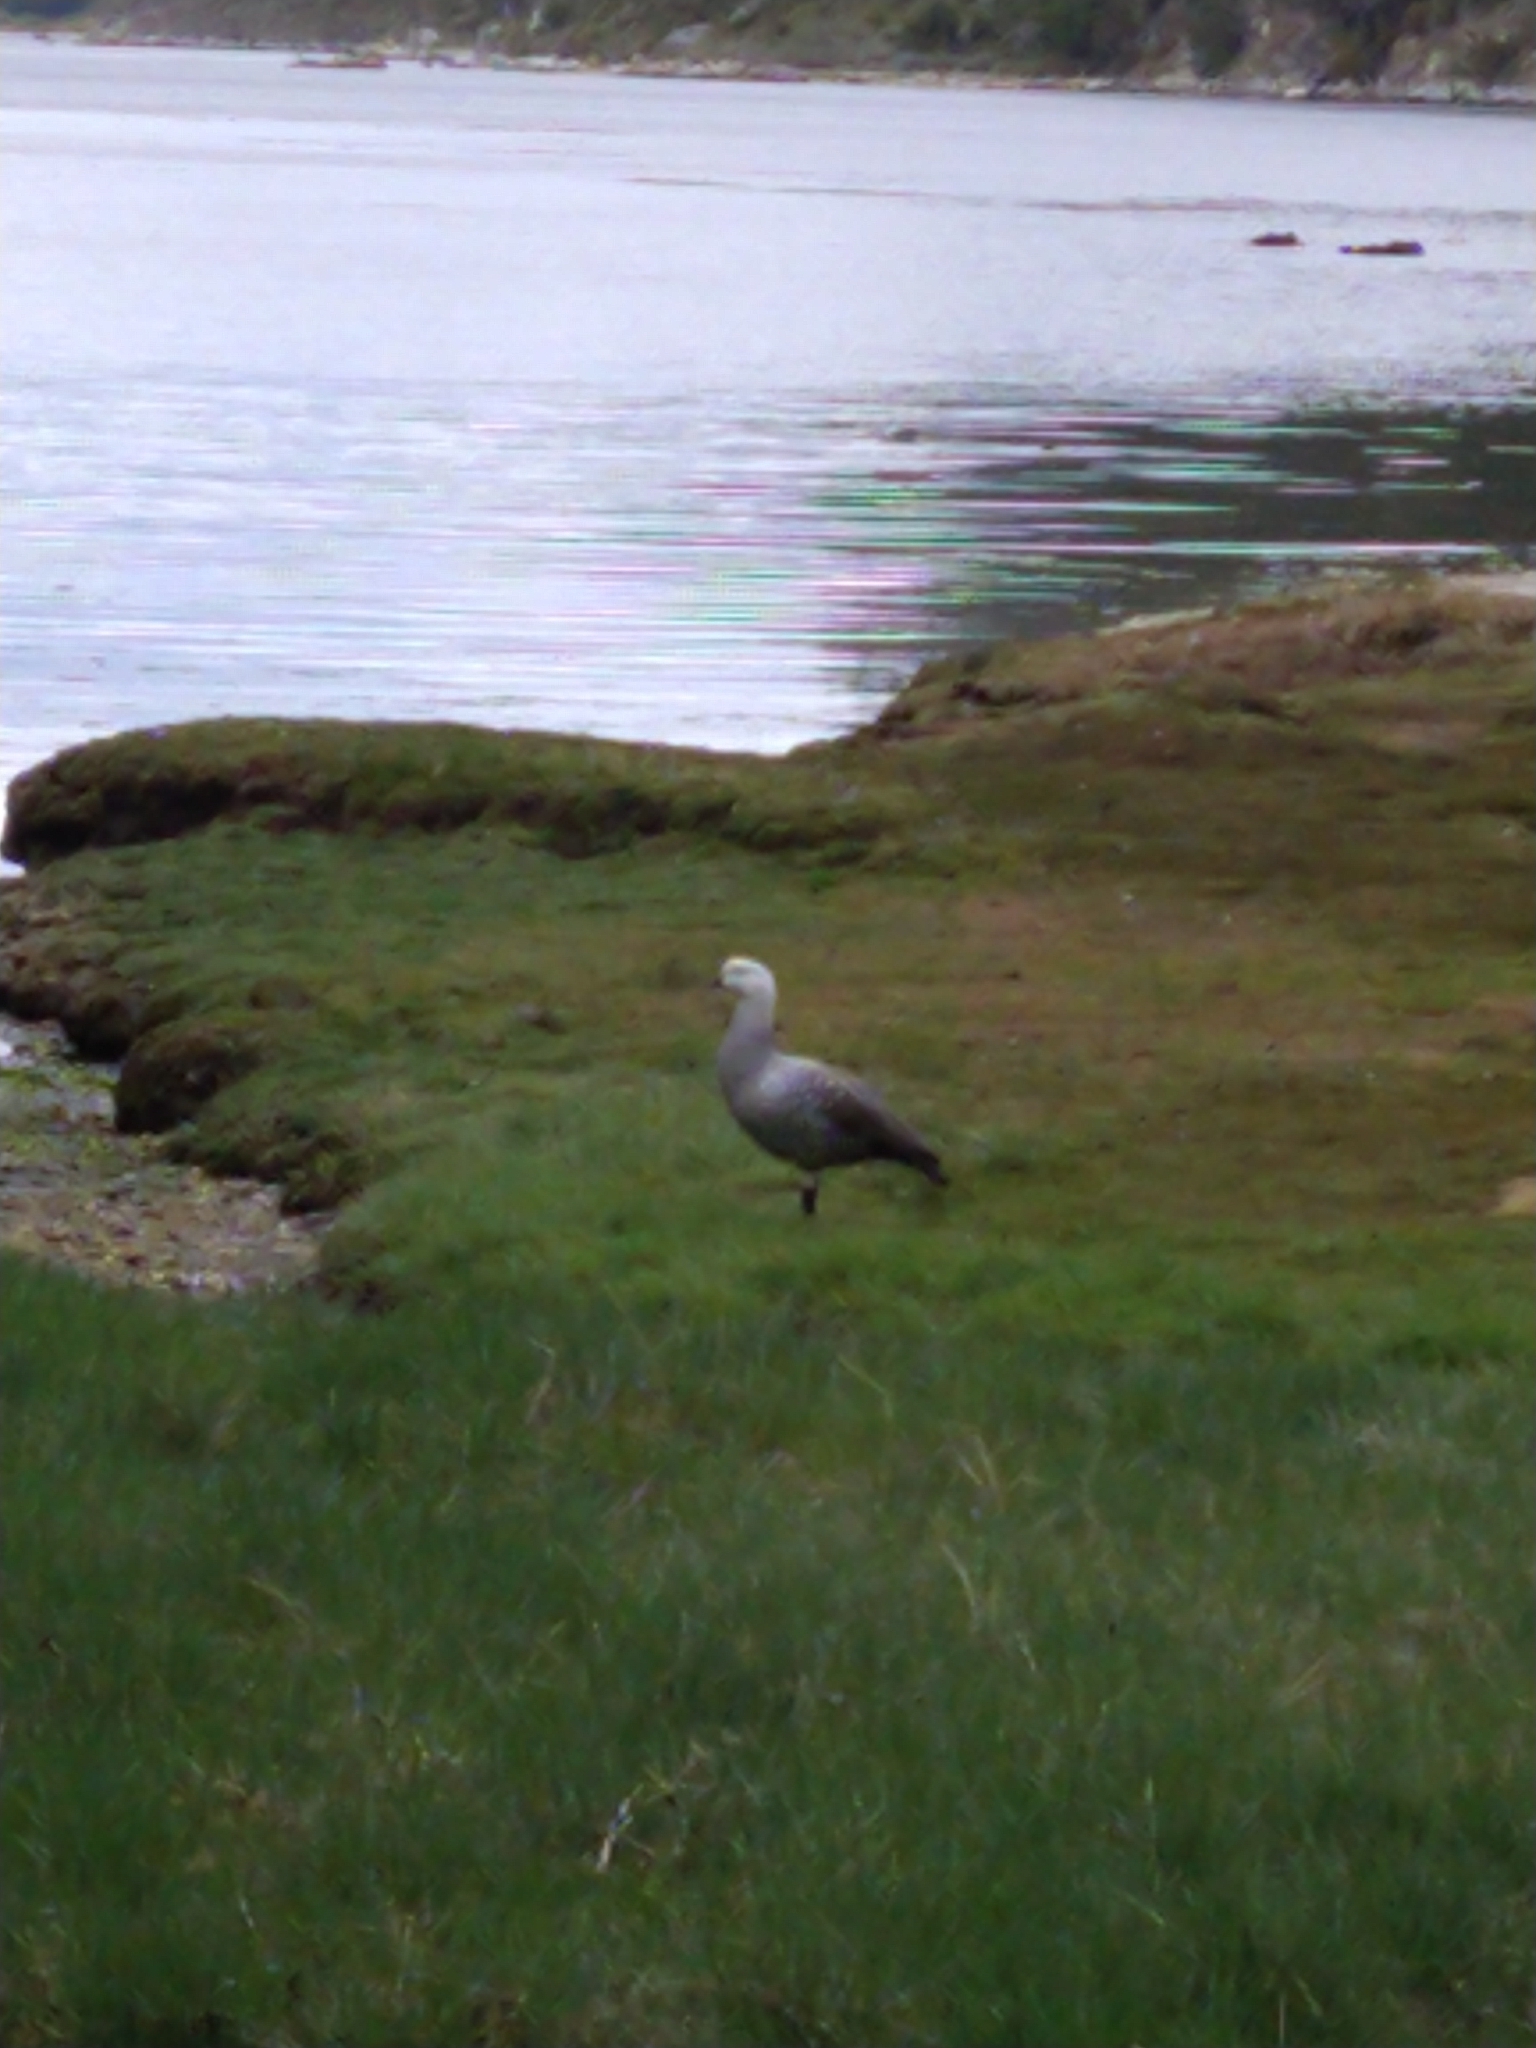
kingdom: Animalia
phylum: Chordata
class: Aves
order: Anseriformes
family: Anatidae
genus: Chloephaga
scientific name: Chloephaga picta
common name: Upland goose
